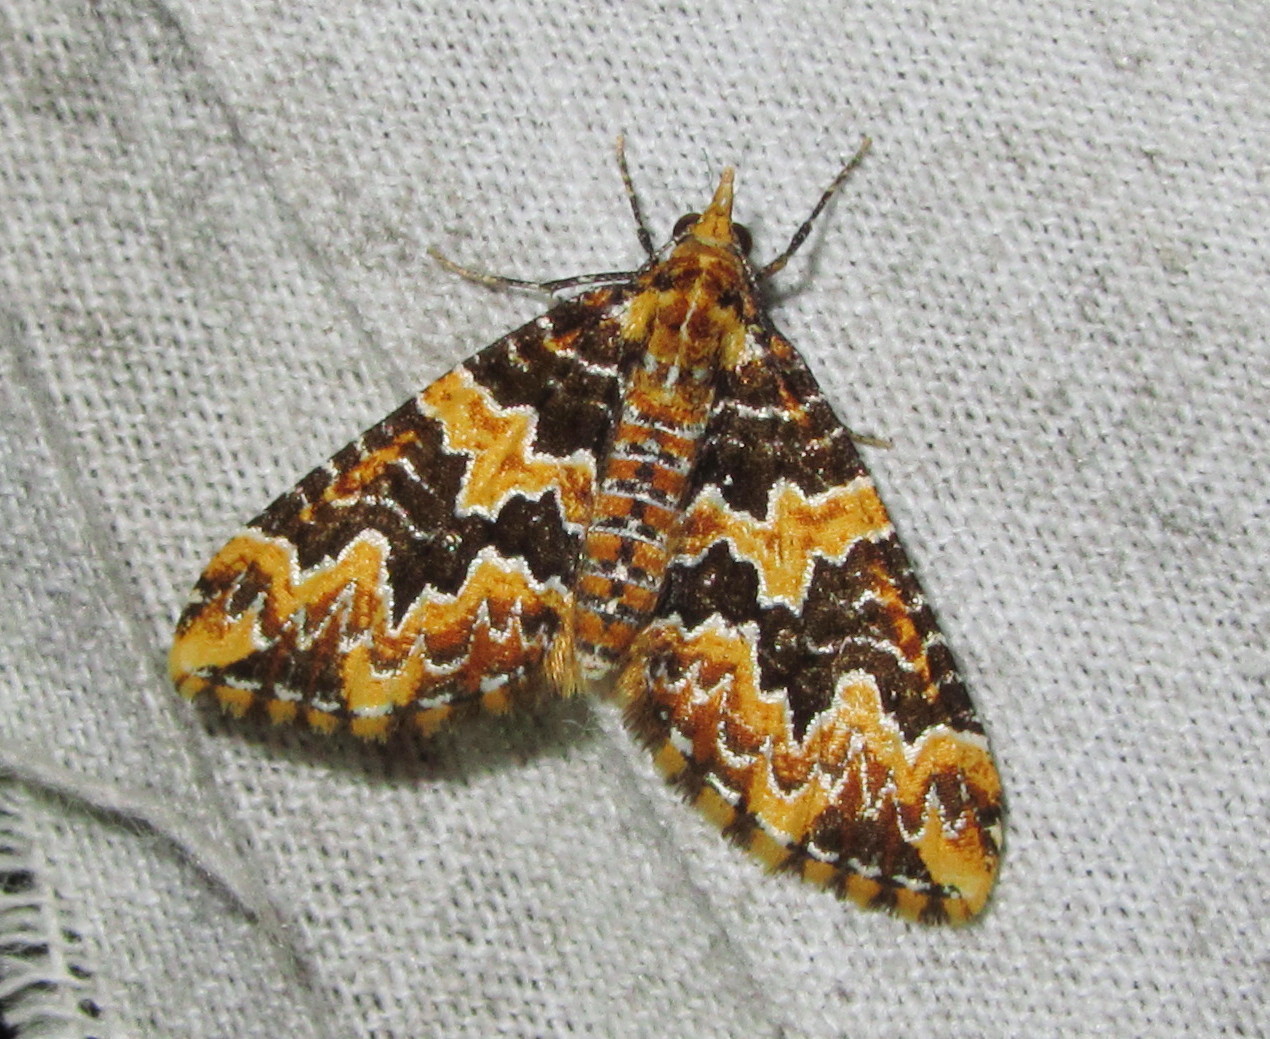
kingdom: Animalia
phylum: Arthropoda
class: Insecta
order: Lepidoptera
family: Geometridae
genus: Electrophaes
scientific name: Electrophaes zaphenges
